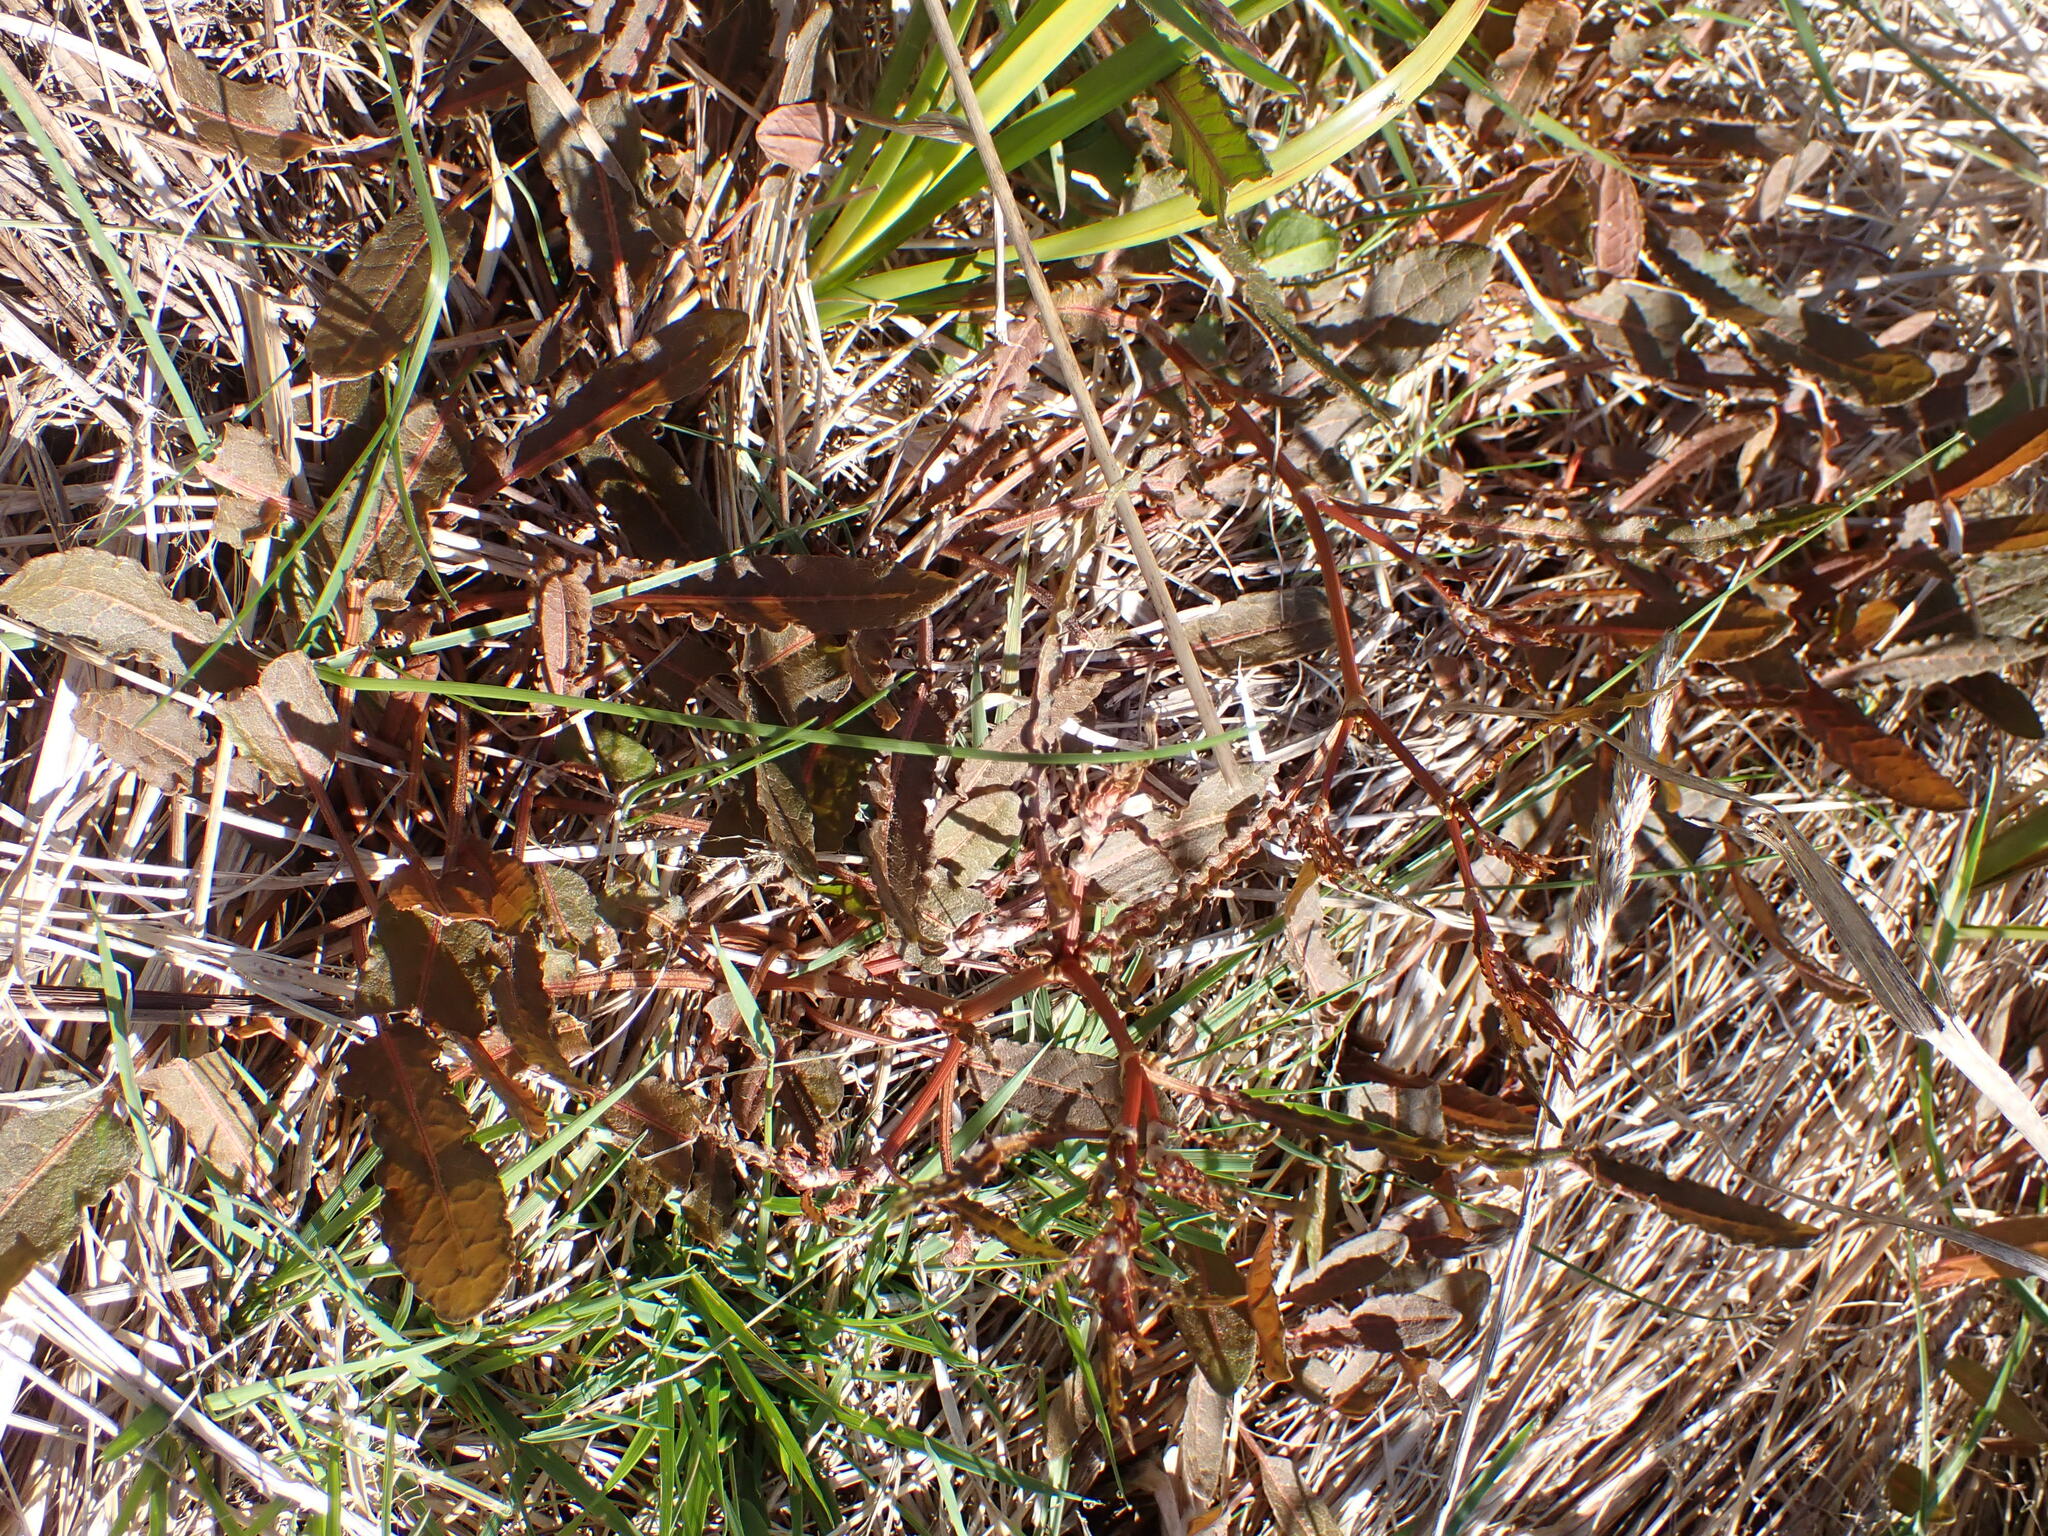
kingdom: Plantae
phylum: Tracheophyta
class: Magnoliopsida
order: Caryophyllales
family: Polygonaceae
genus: Rumex
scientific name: Rumex flexuosus
